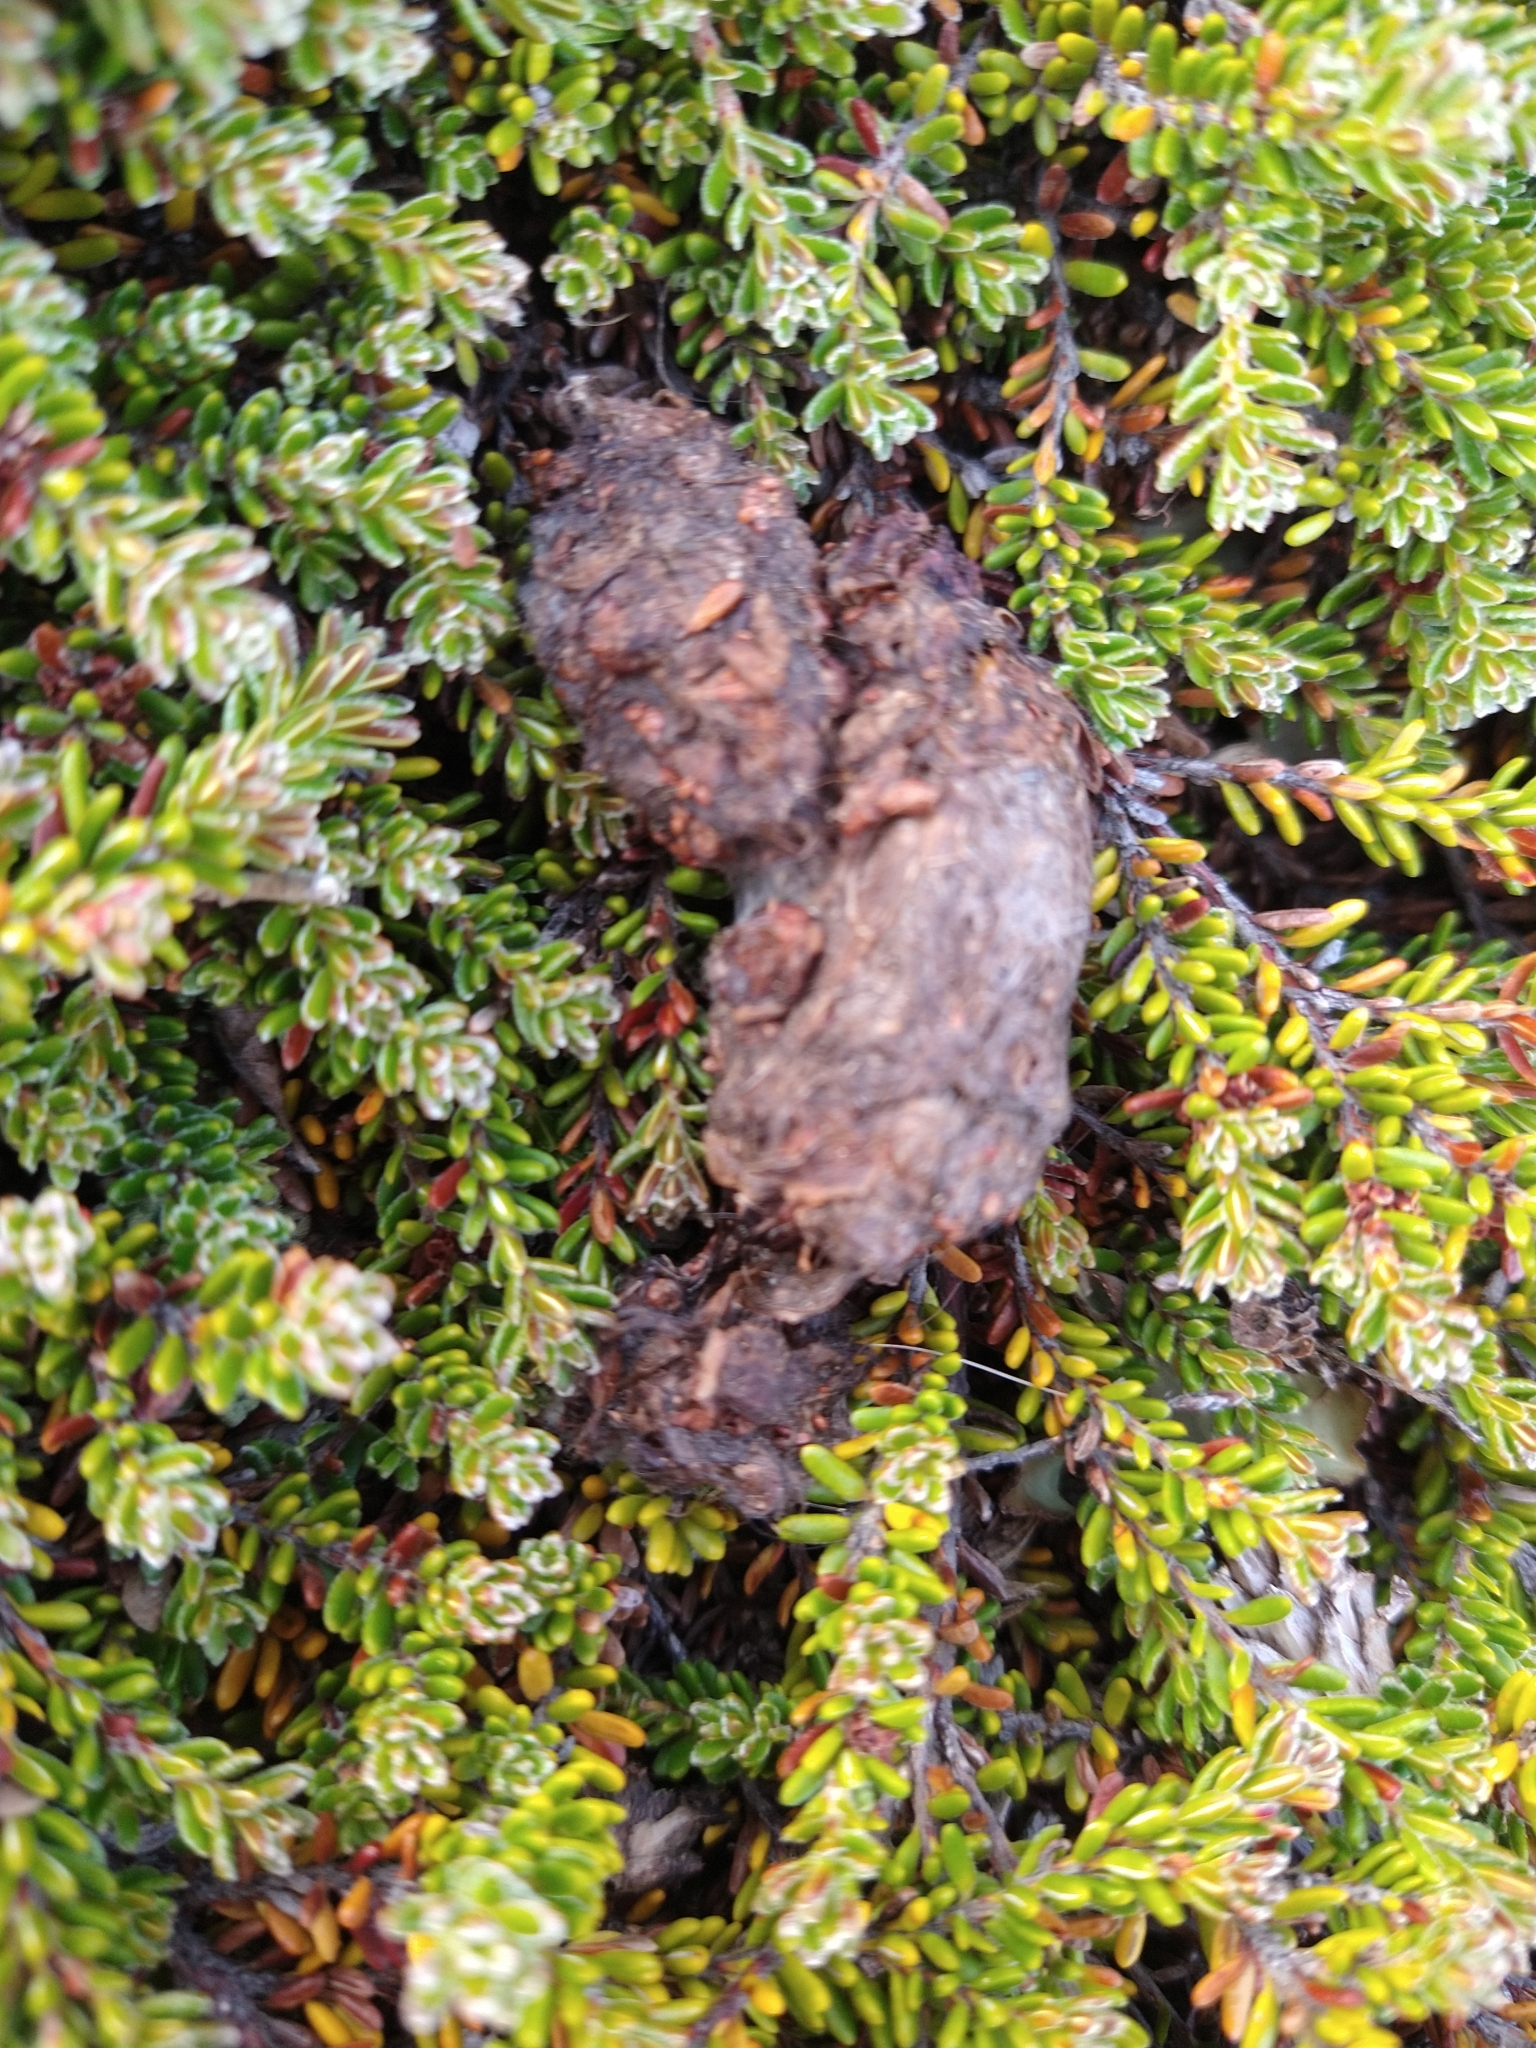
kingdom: Plantae
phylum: Tracheophyta
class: Magnoliopsida
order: Ericales
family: Ericaceae
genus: Empetrum
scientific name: Empetrum rubrum
